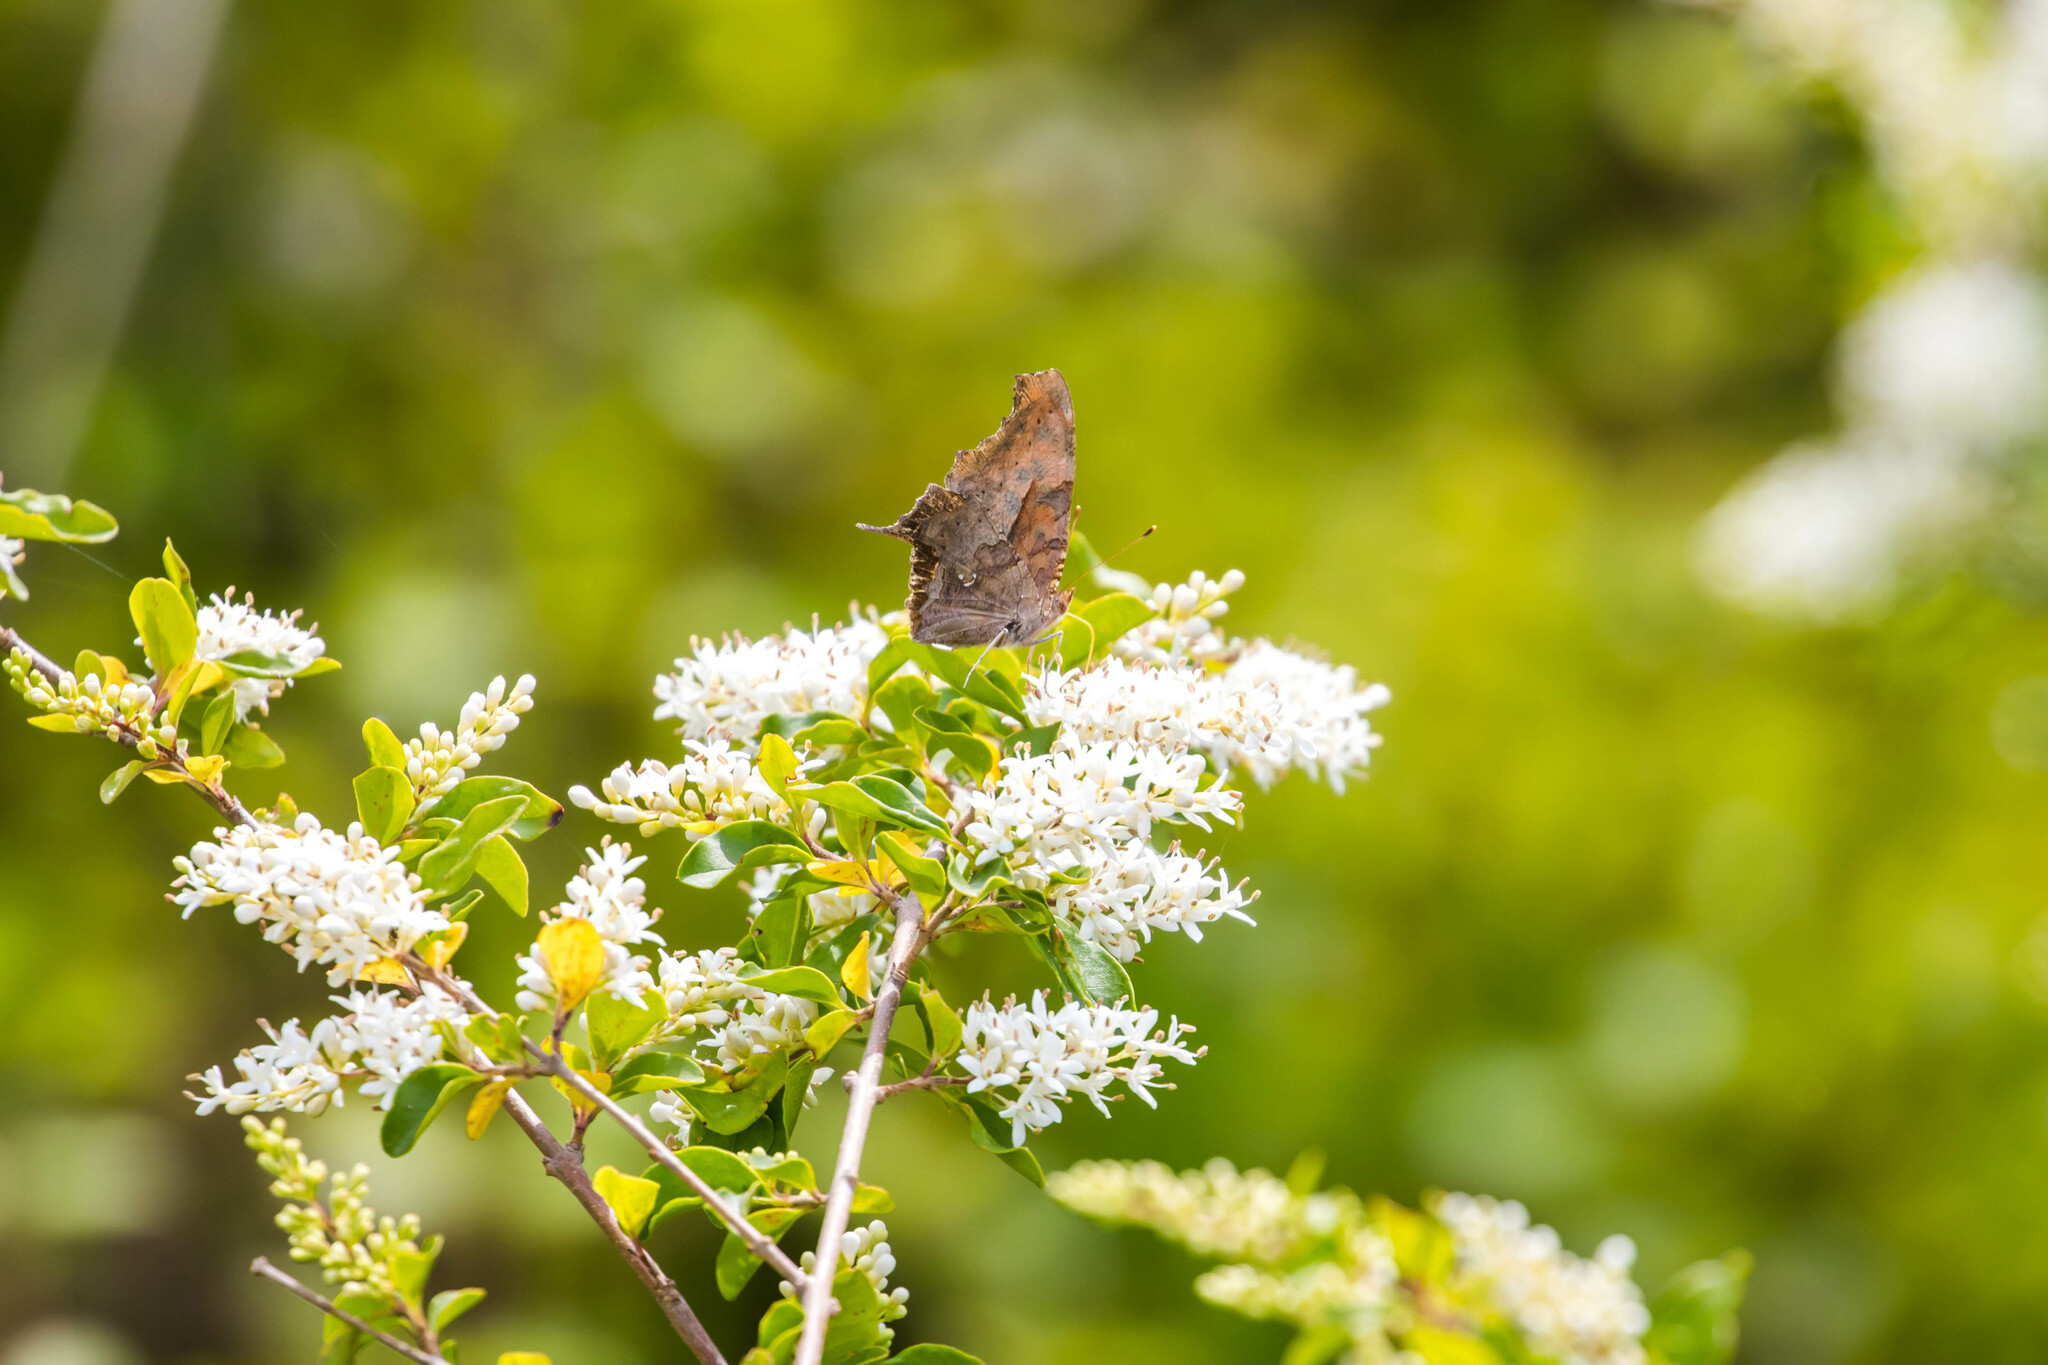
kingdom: Animalia
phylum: Arthropoda
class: Insecta
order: Lepidoptera
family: Nymphalidae
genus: Polygonia
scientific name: Polygonia interrogationis
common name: Question mark
